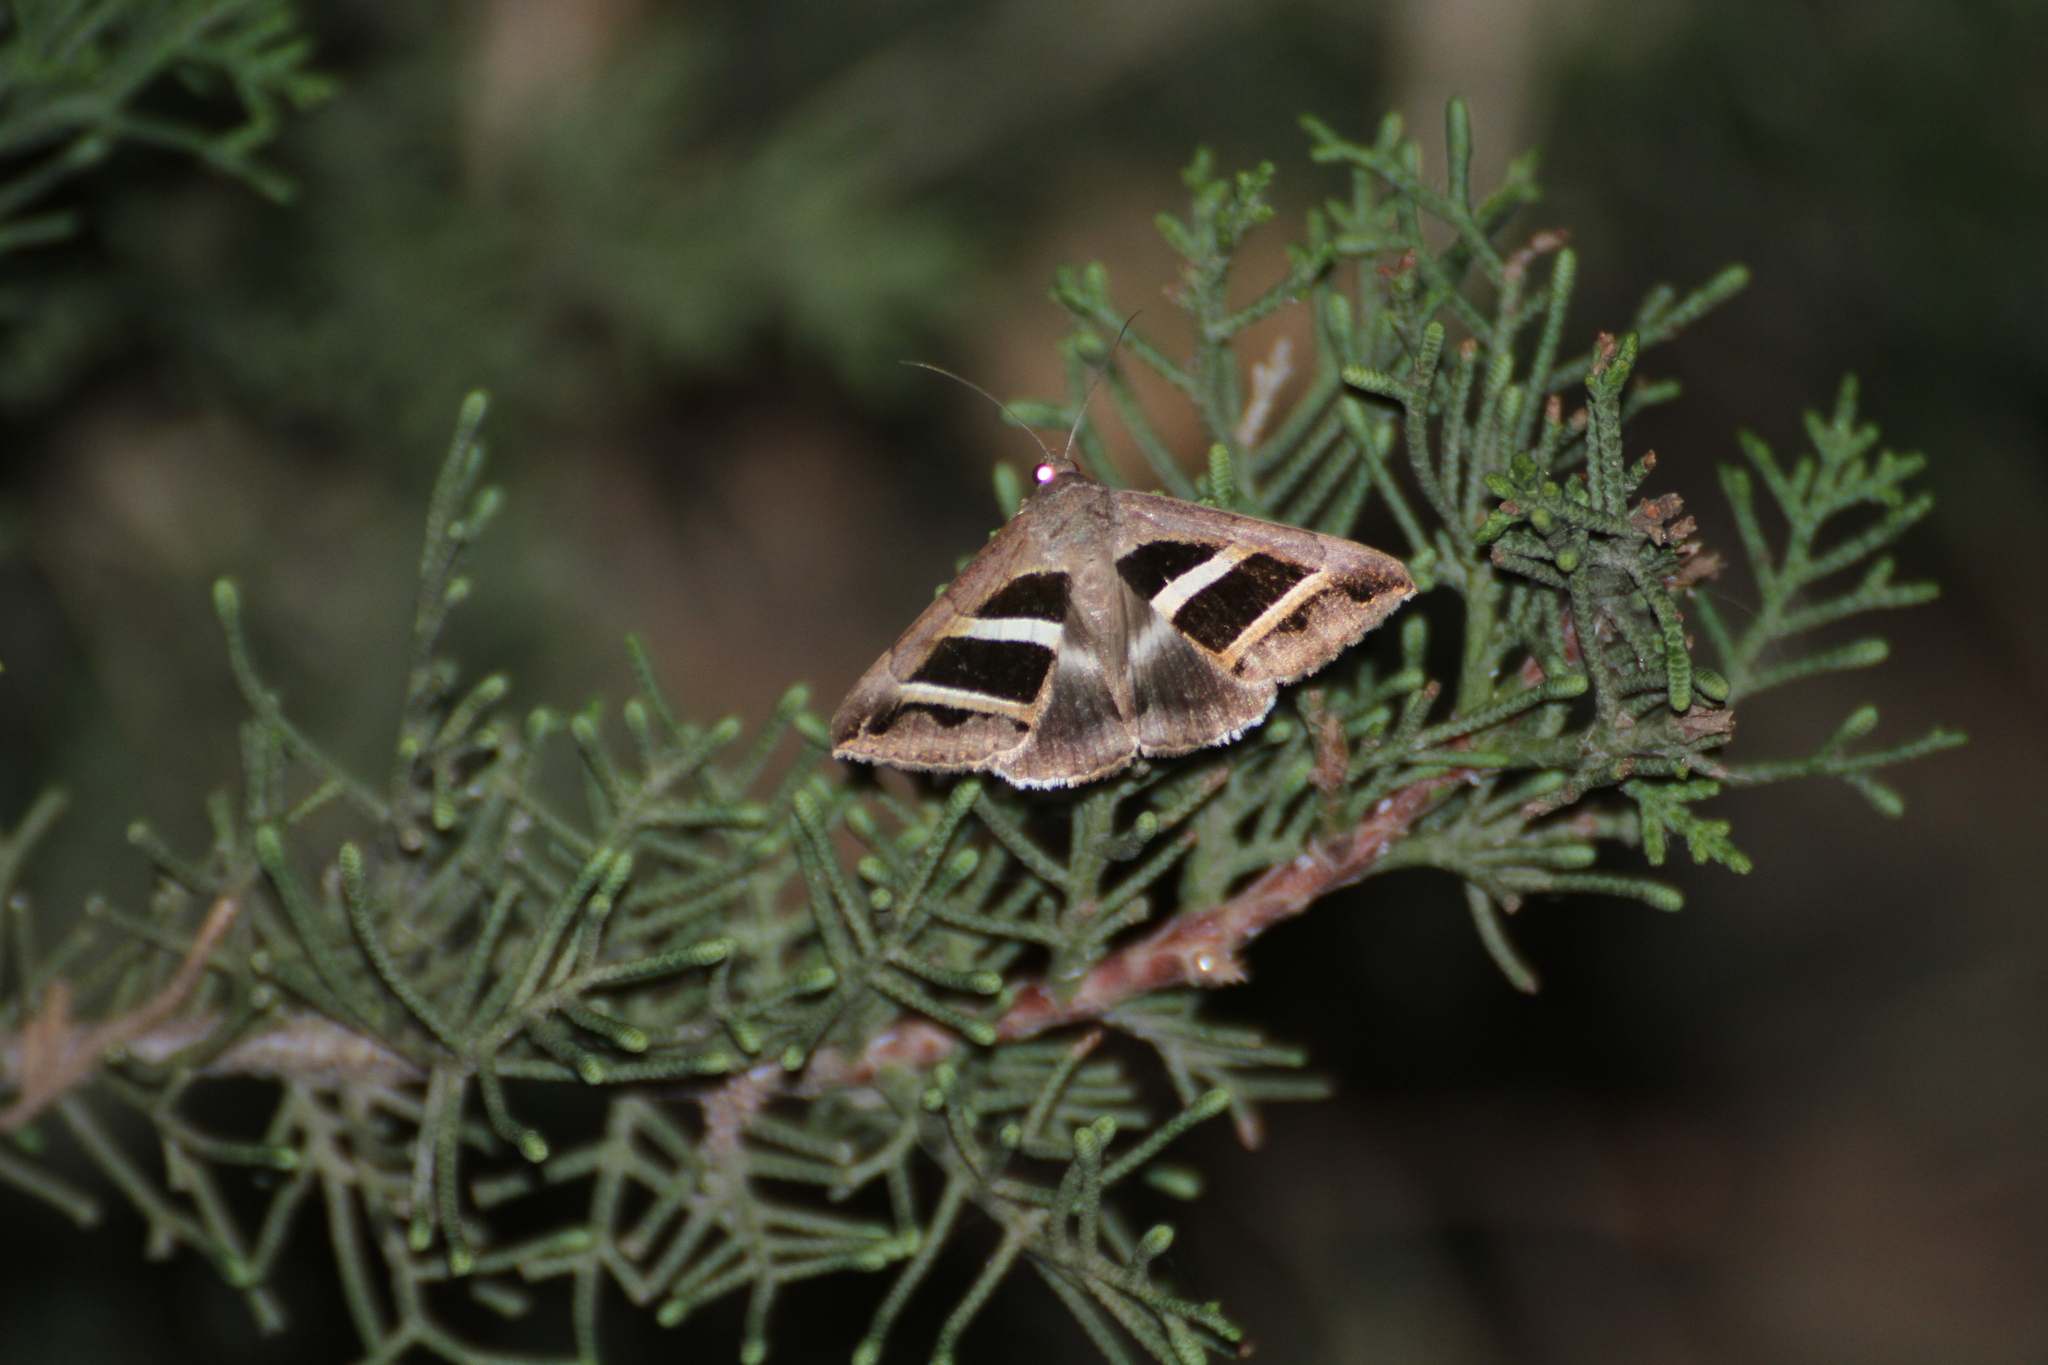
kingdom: Animalia
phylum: Arthropoda
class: Insecta
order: Lepidoptera
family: Erebidae
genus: Grammodes
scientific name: Grammodes bifasciata
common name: Parallel lines
